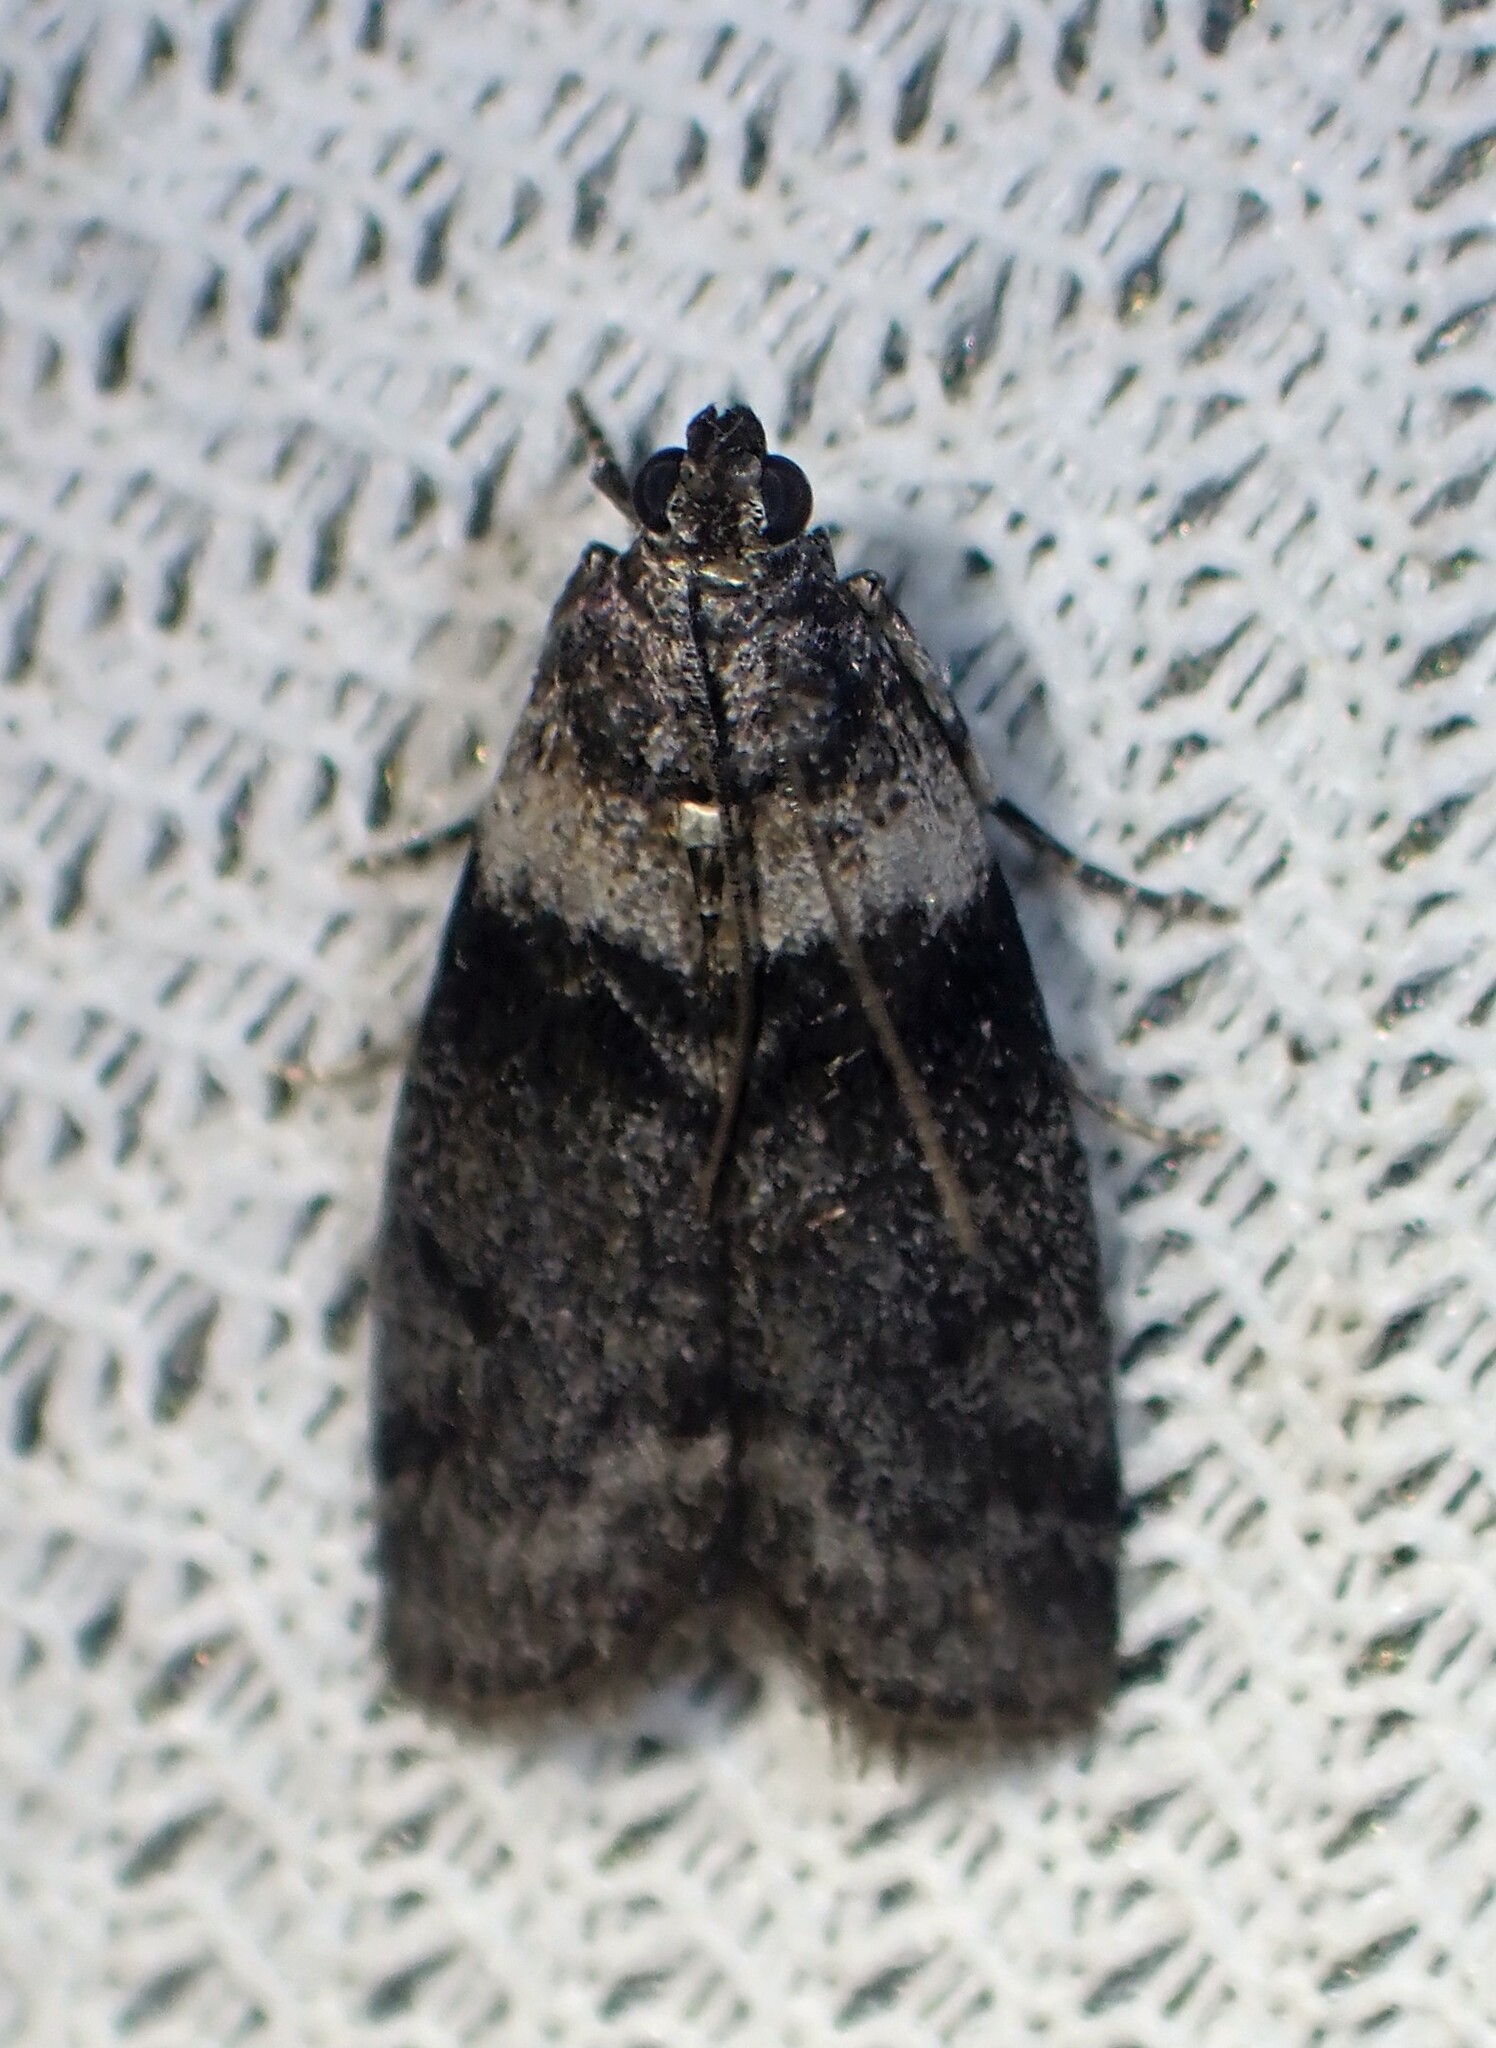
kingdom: Animalia
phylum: Arthropoda
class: Insecta
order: Lepidoptera
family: Pyralidae
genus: Meroptera
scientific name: Meroptera pravella
